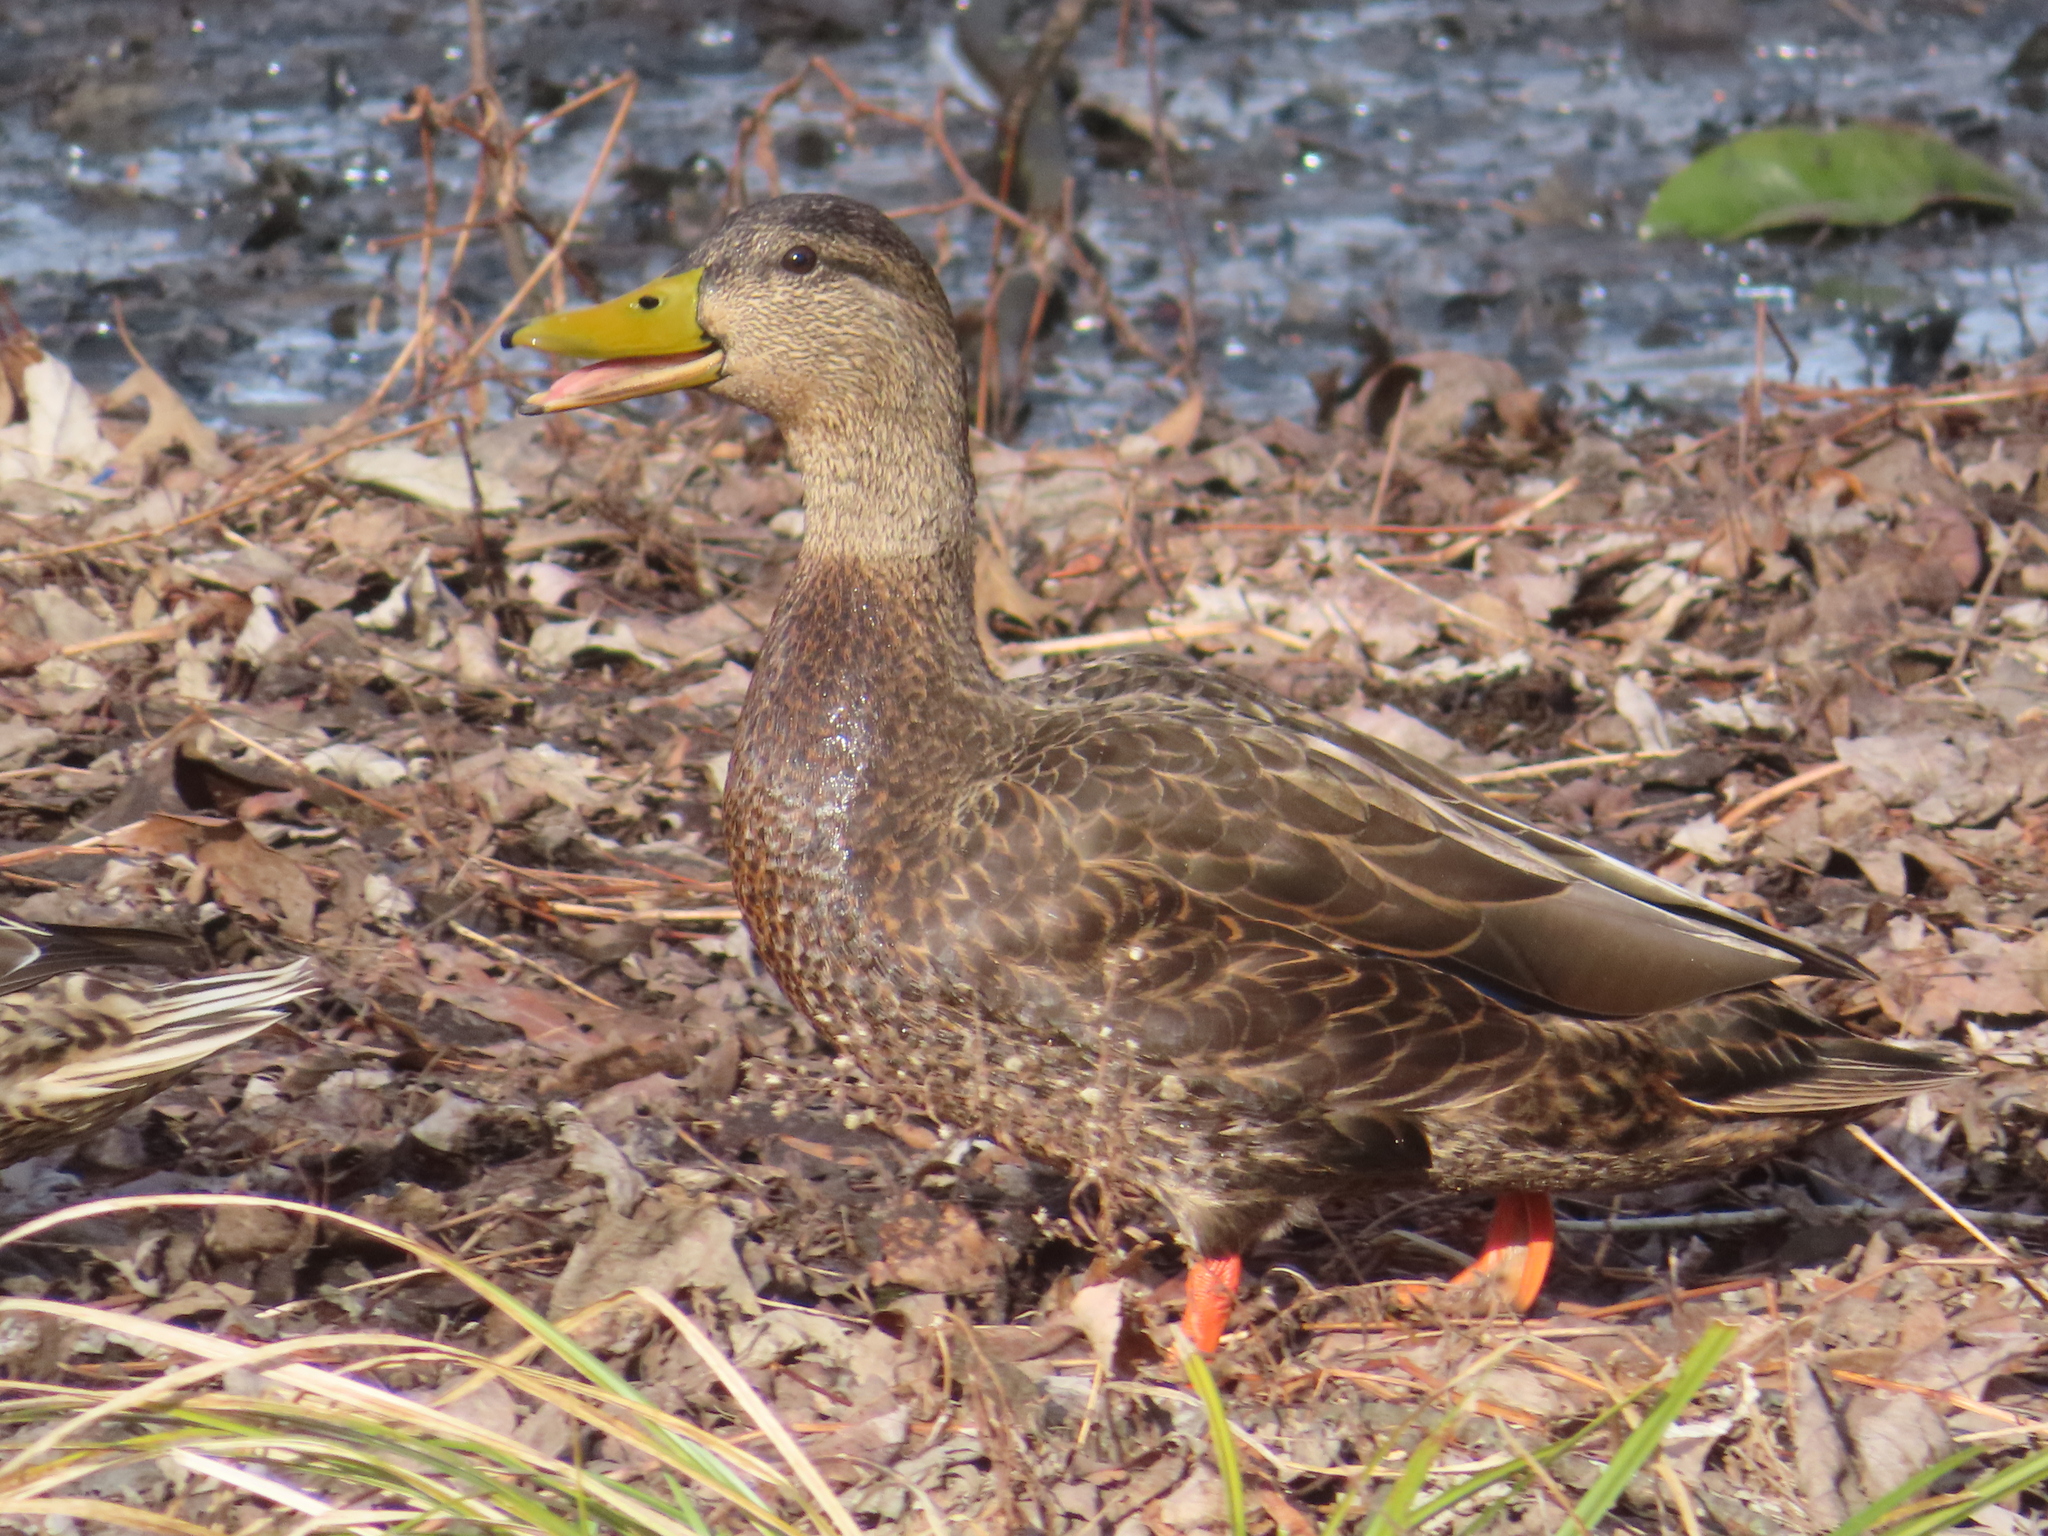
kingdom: Animalia
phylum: Chordata
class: Aves
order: Anseriformes
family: Anatidae
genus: Anas
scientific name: Anas rubripes
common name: American black duck
